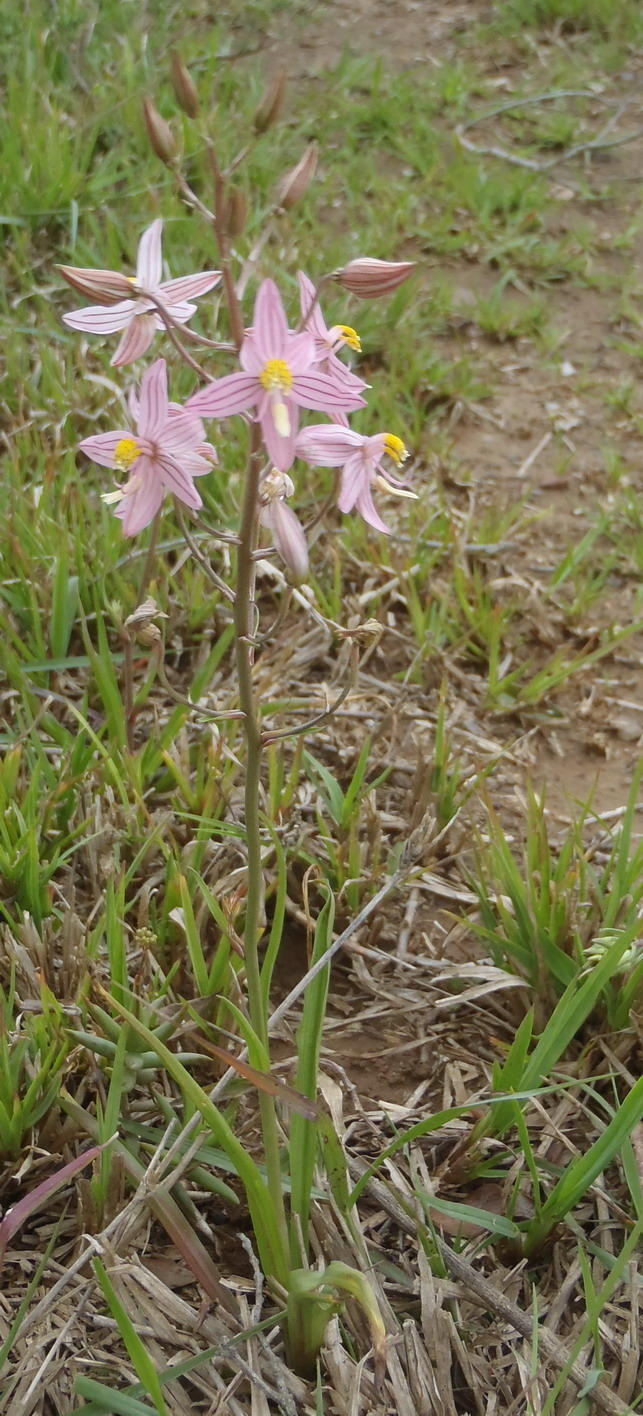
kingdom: Plantae
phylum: Tracheophyta
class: Liliopsida
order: Asparagales
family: Tecophilaeaceae
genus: Cyanella
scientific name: Cyanella lutea
